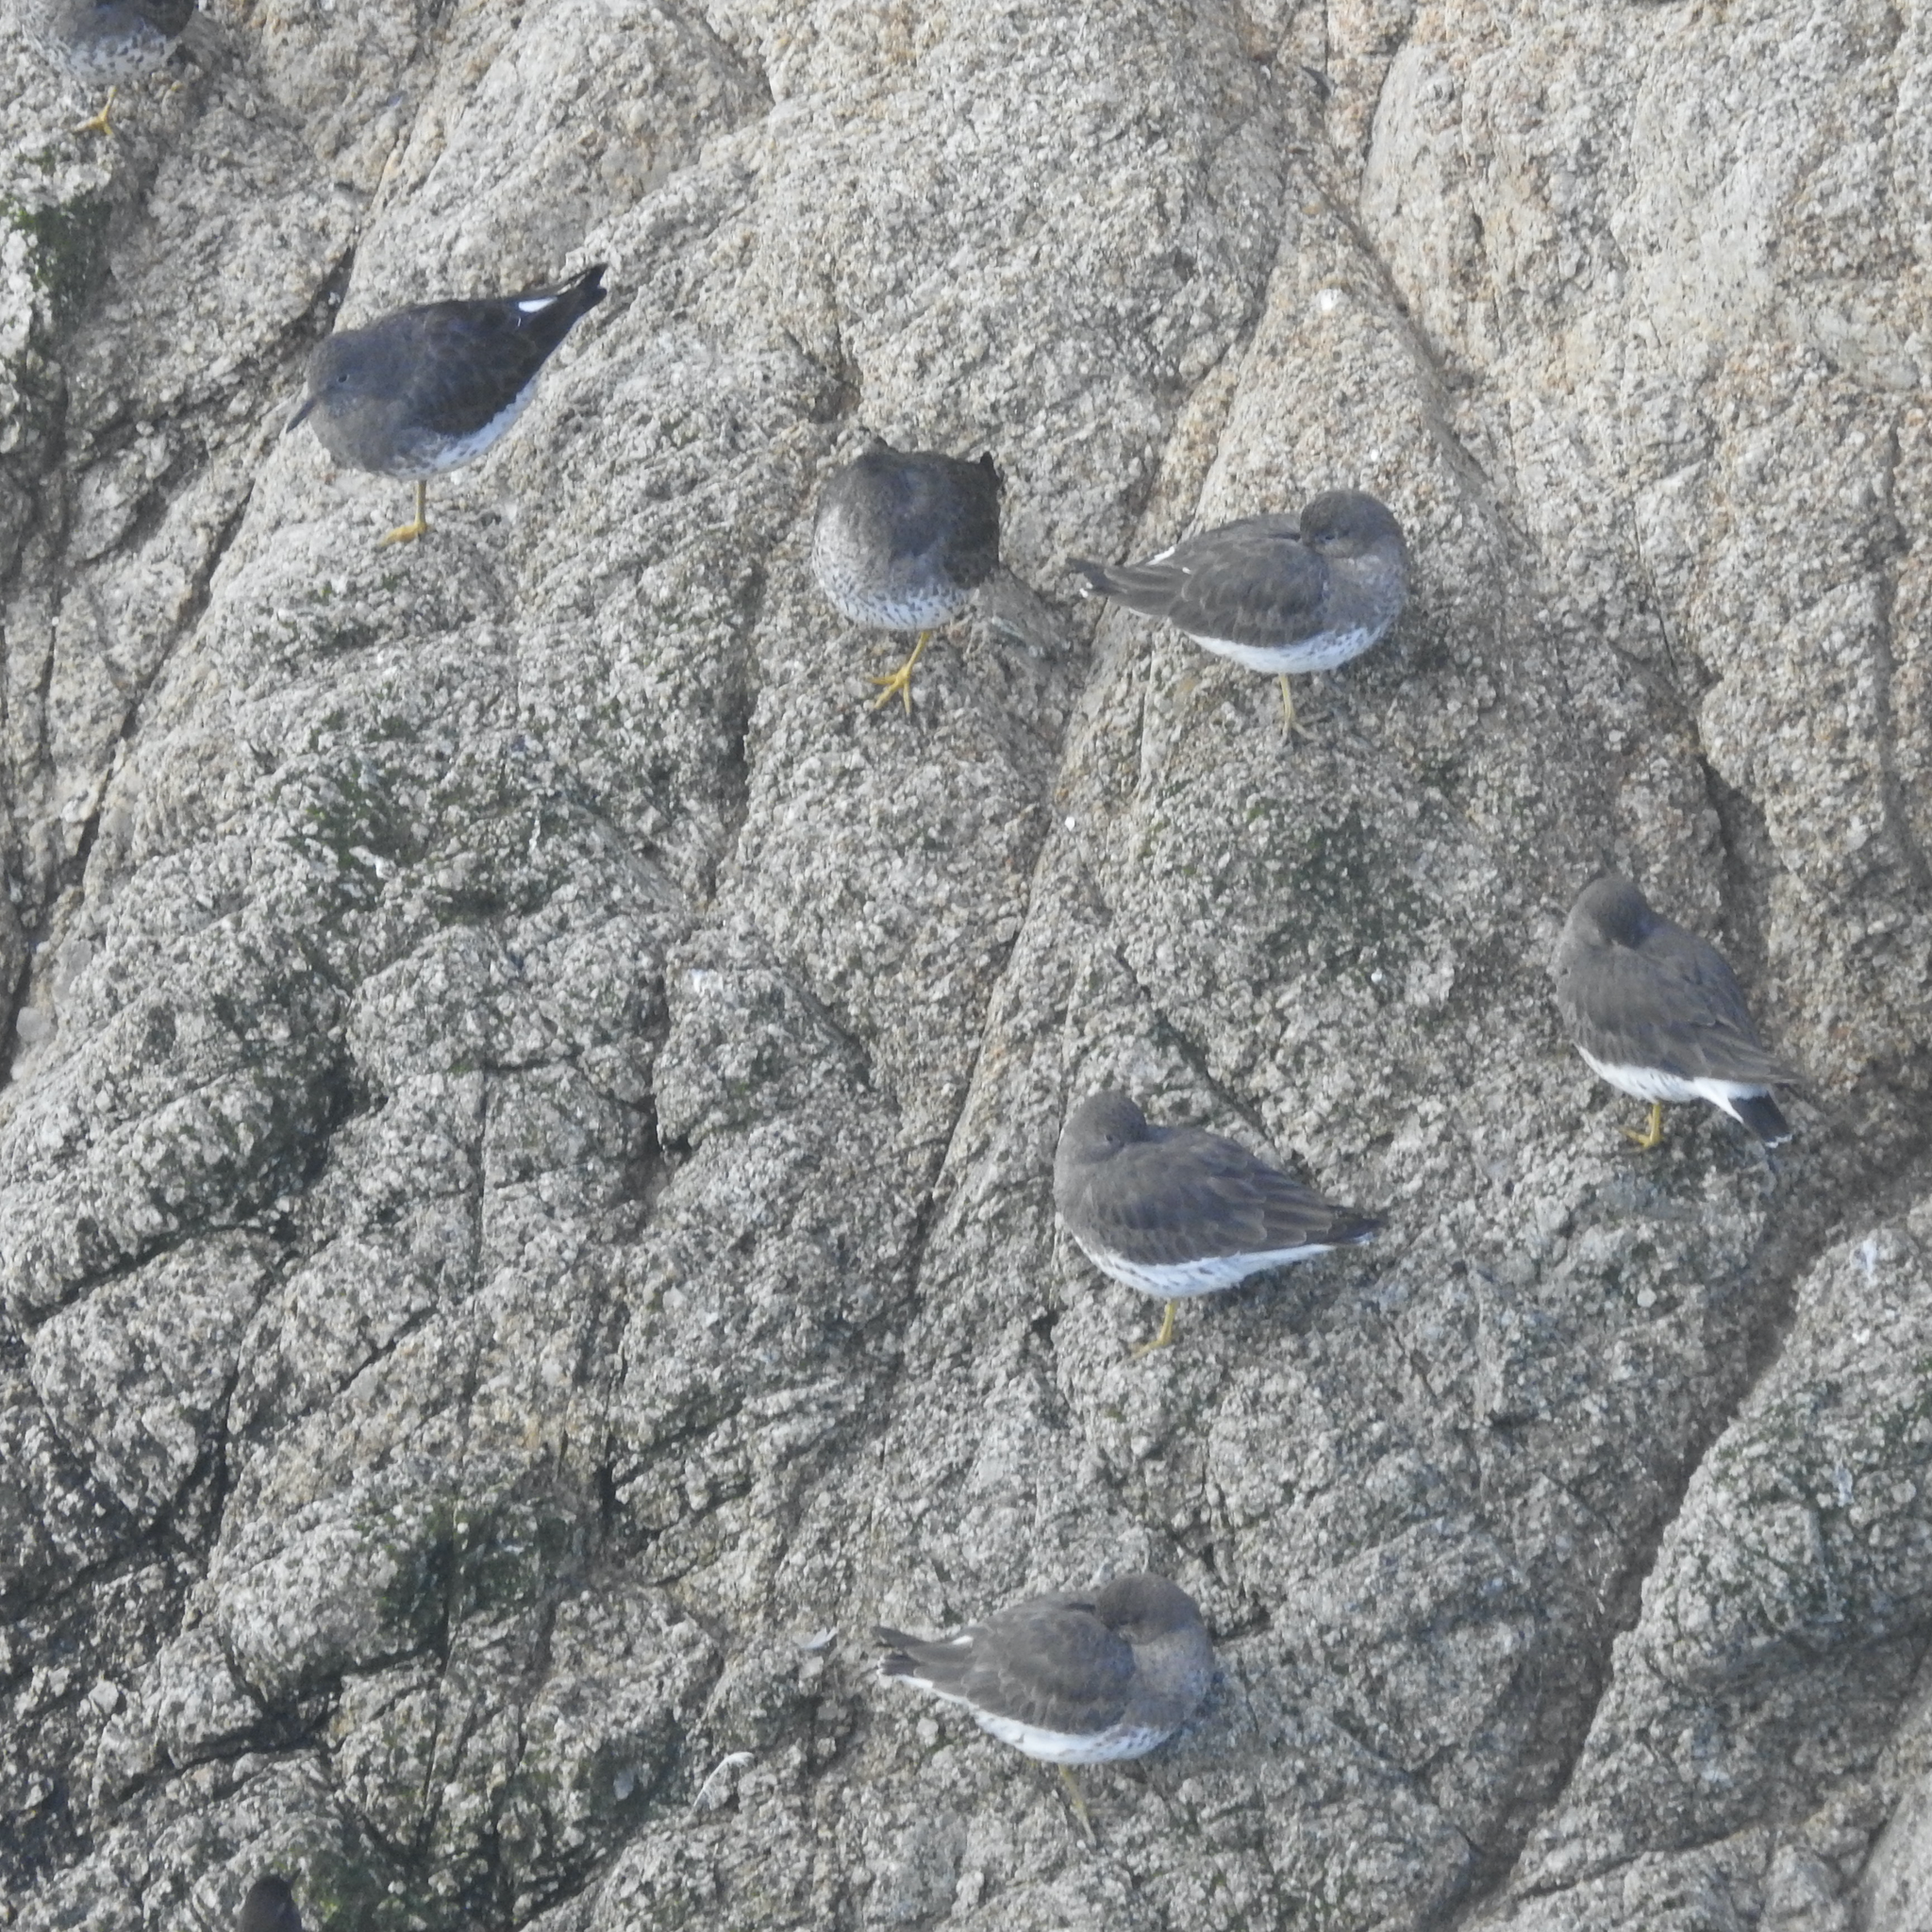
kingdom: Animalia
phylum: Chordata
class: Aves
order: Charadriiformes
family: Scolopacidae
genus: Calidris
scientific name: Calidris virgata
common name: Surfbird
